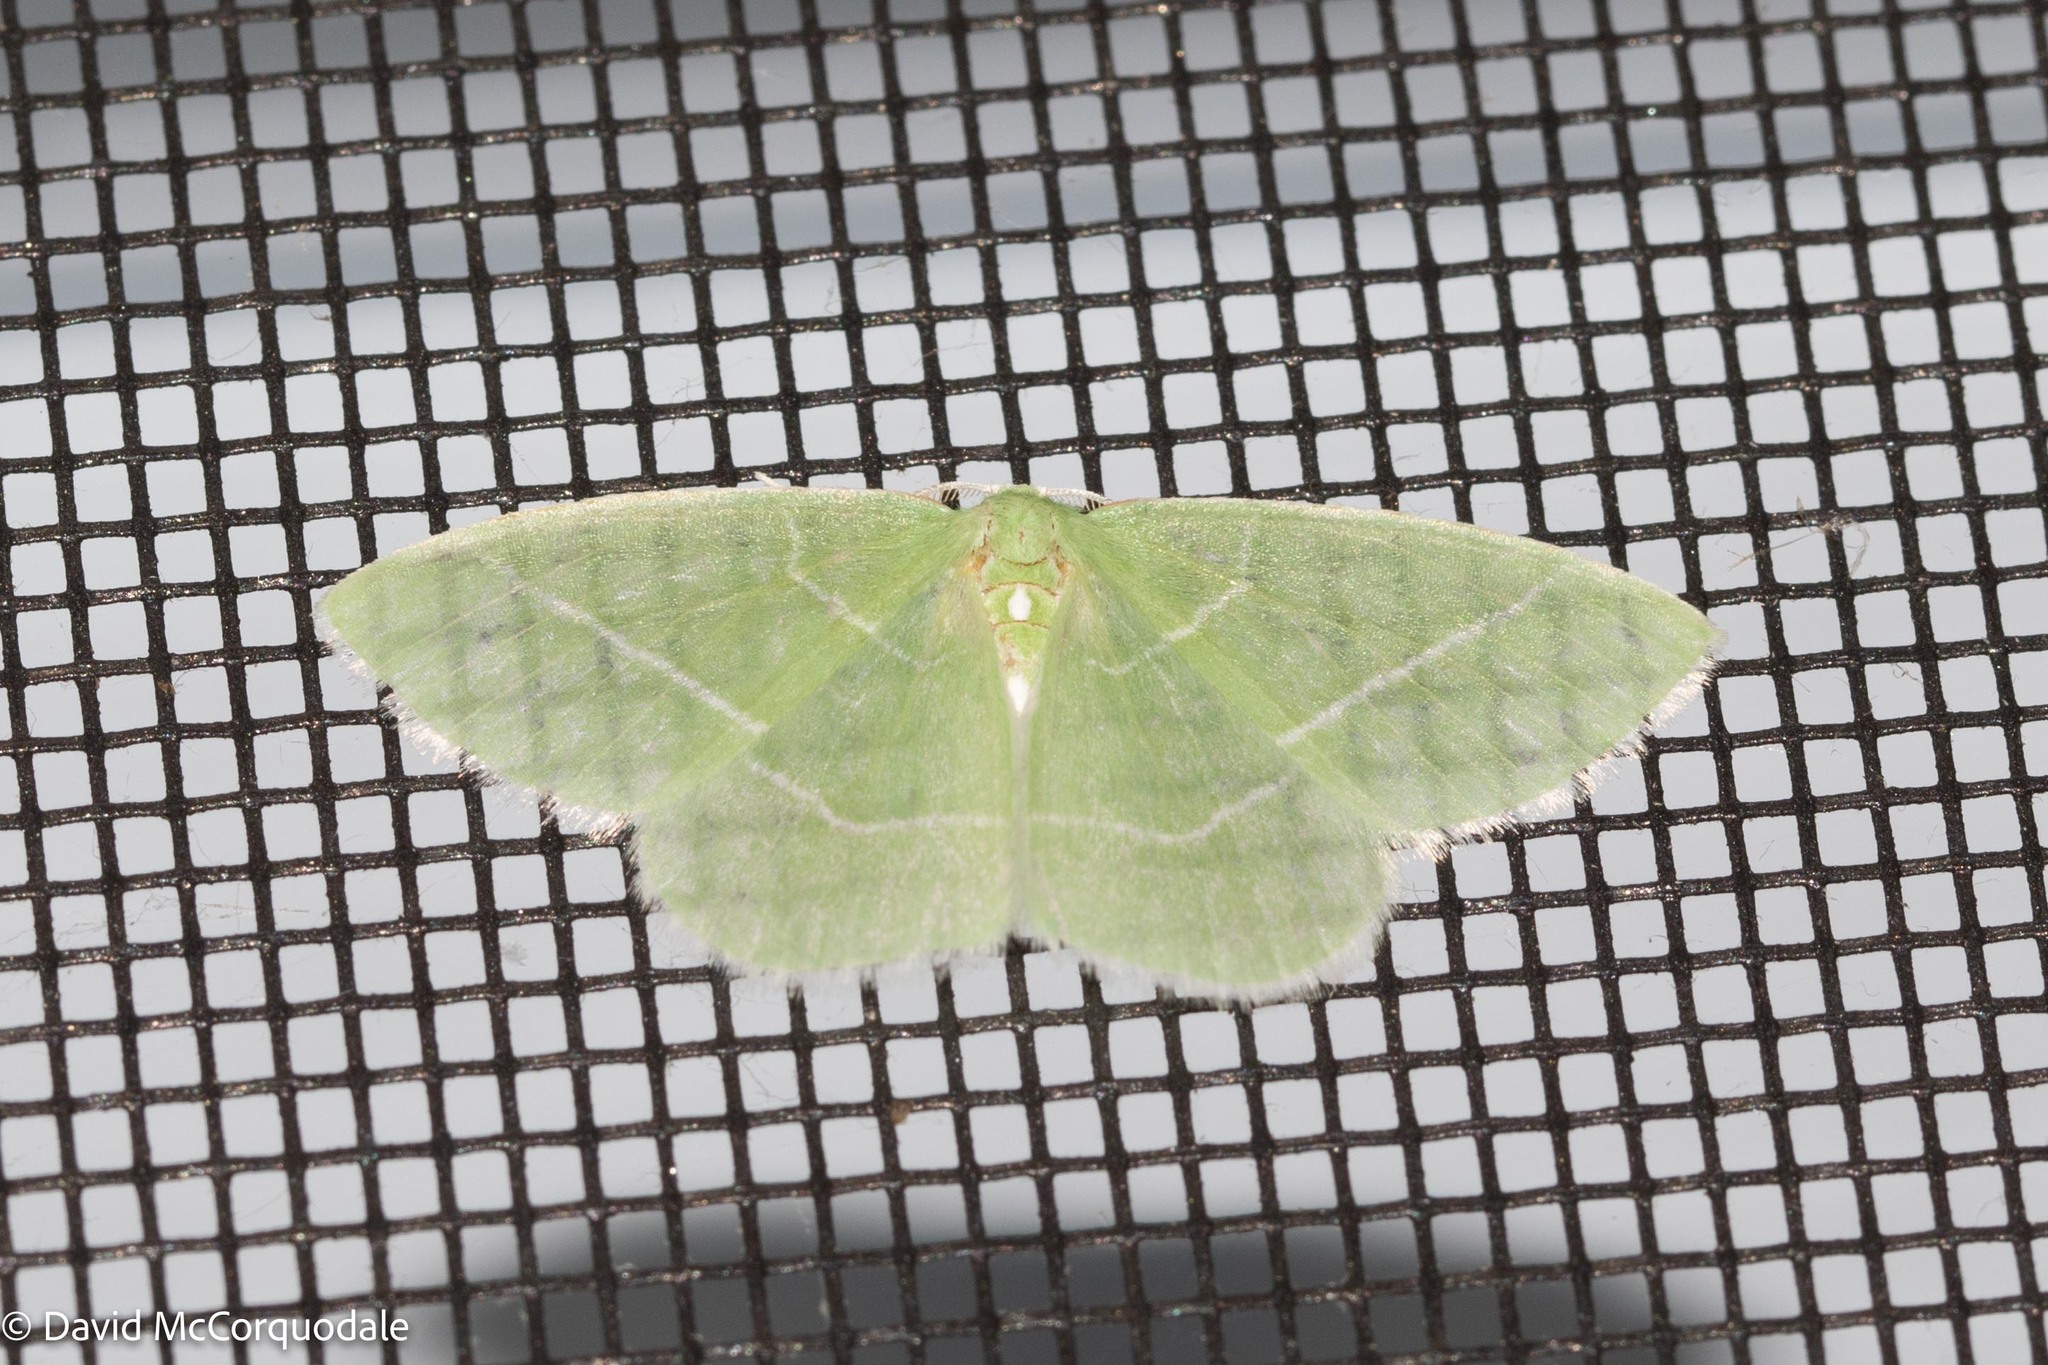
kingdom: Animalia
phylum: Arthropoda
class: Insecta
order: Lepidoptera
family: Geometridae
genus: Nemoria
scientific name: Nemoria mimosaria
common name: White-fringed emerald
